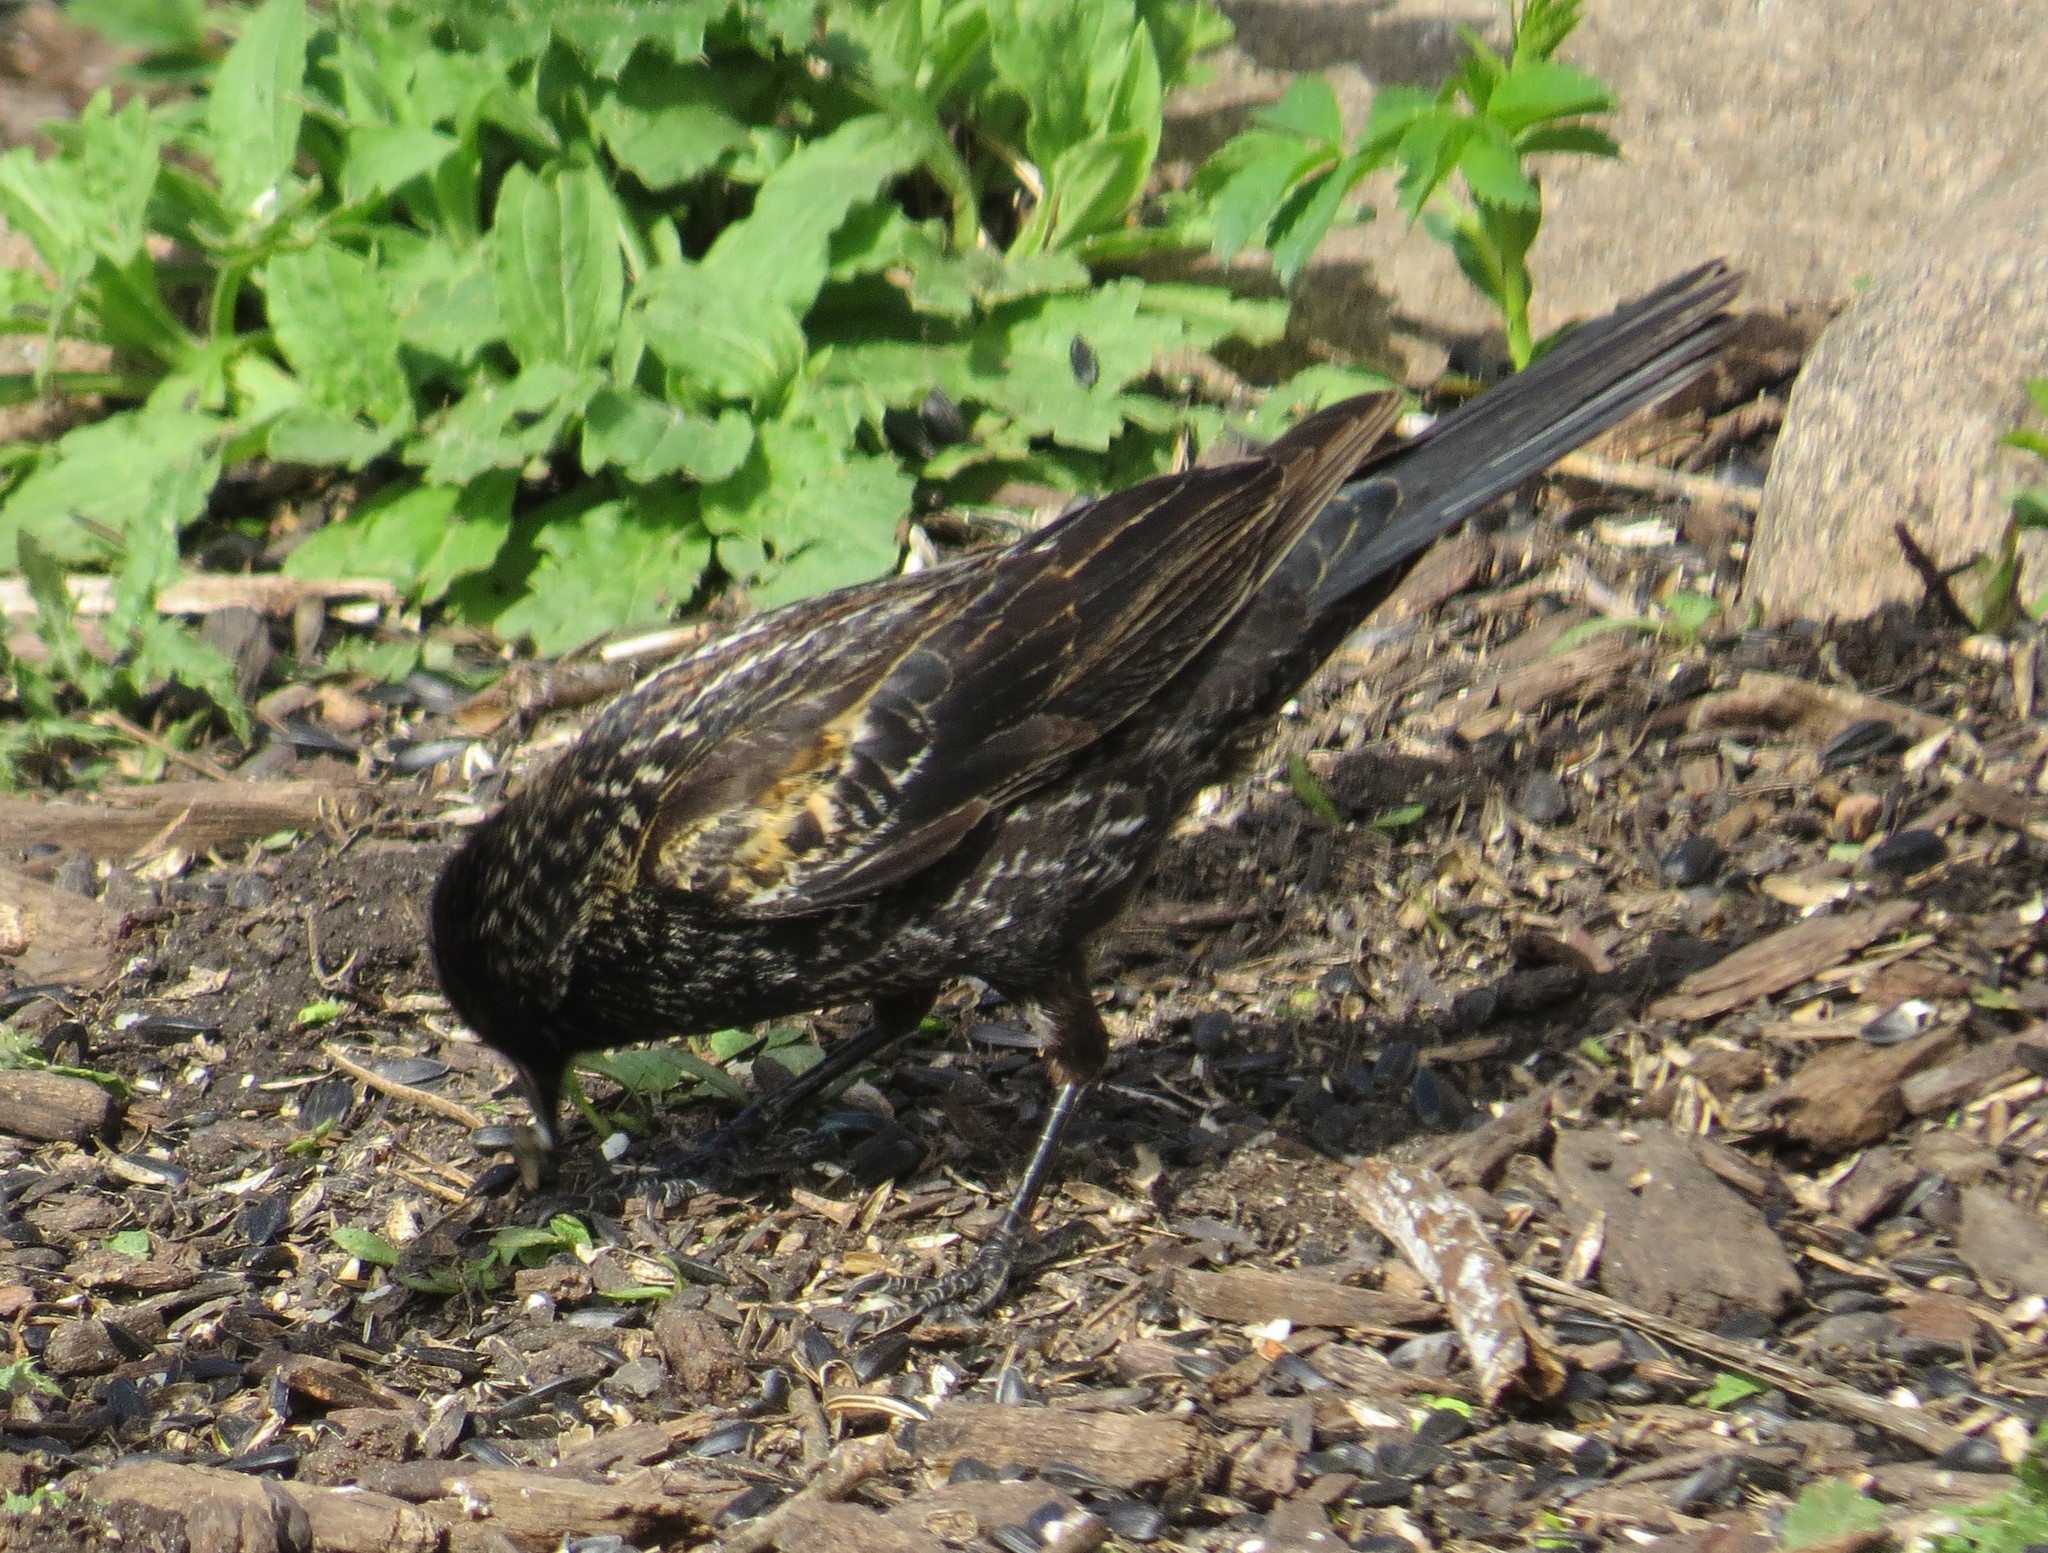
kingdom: Animalia
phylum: Chordata
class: Aves
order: Passeriformes
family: Icteridae
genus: Agelaius
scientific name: Agelaius phoeniceus
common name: Red-winged blackbird
